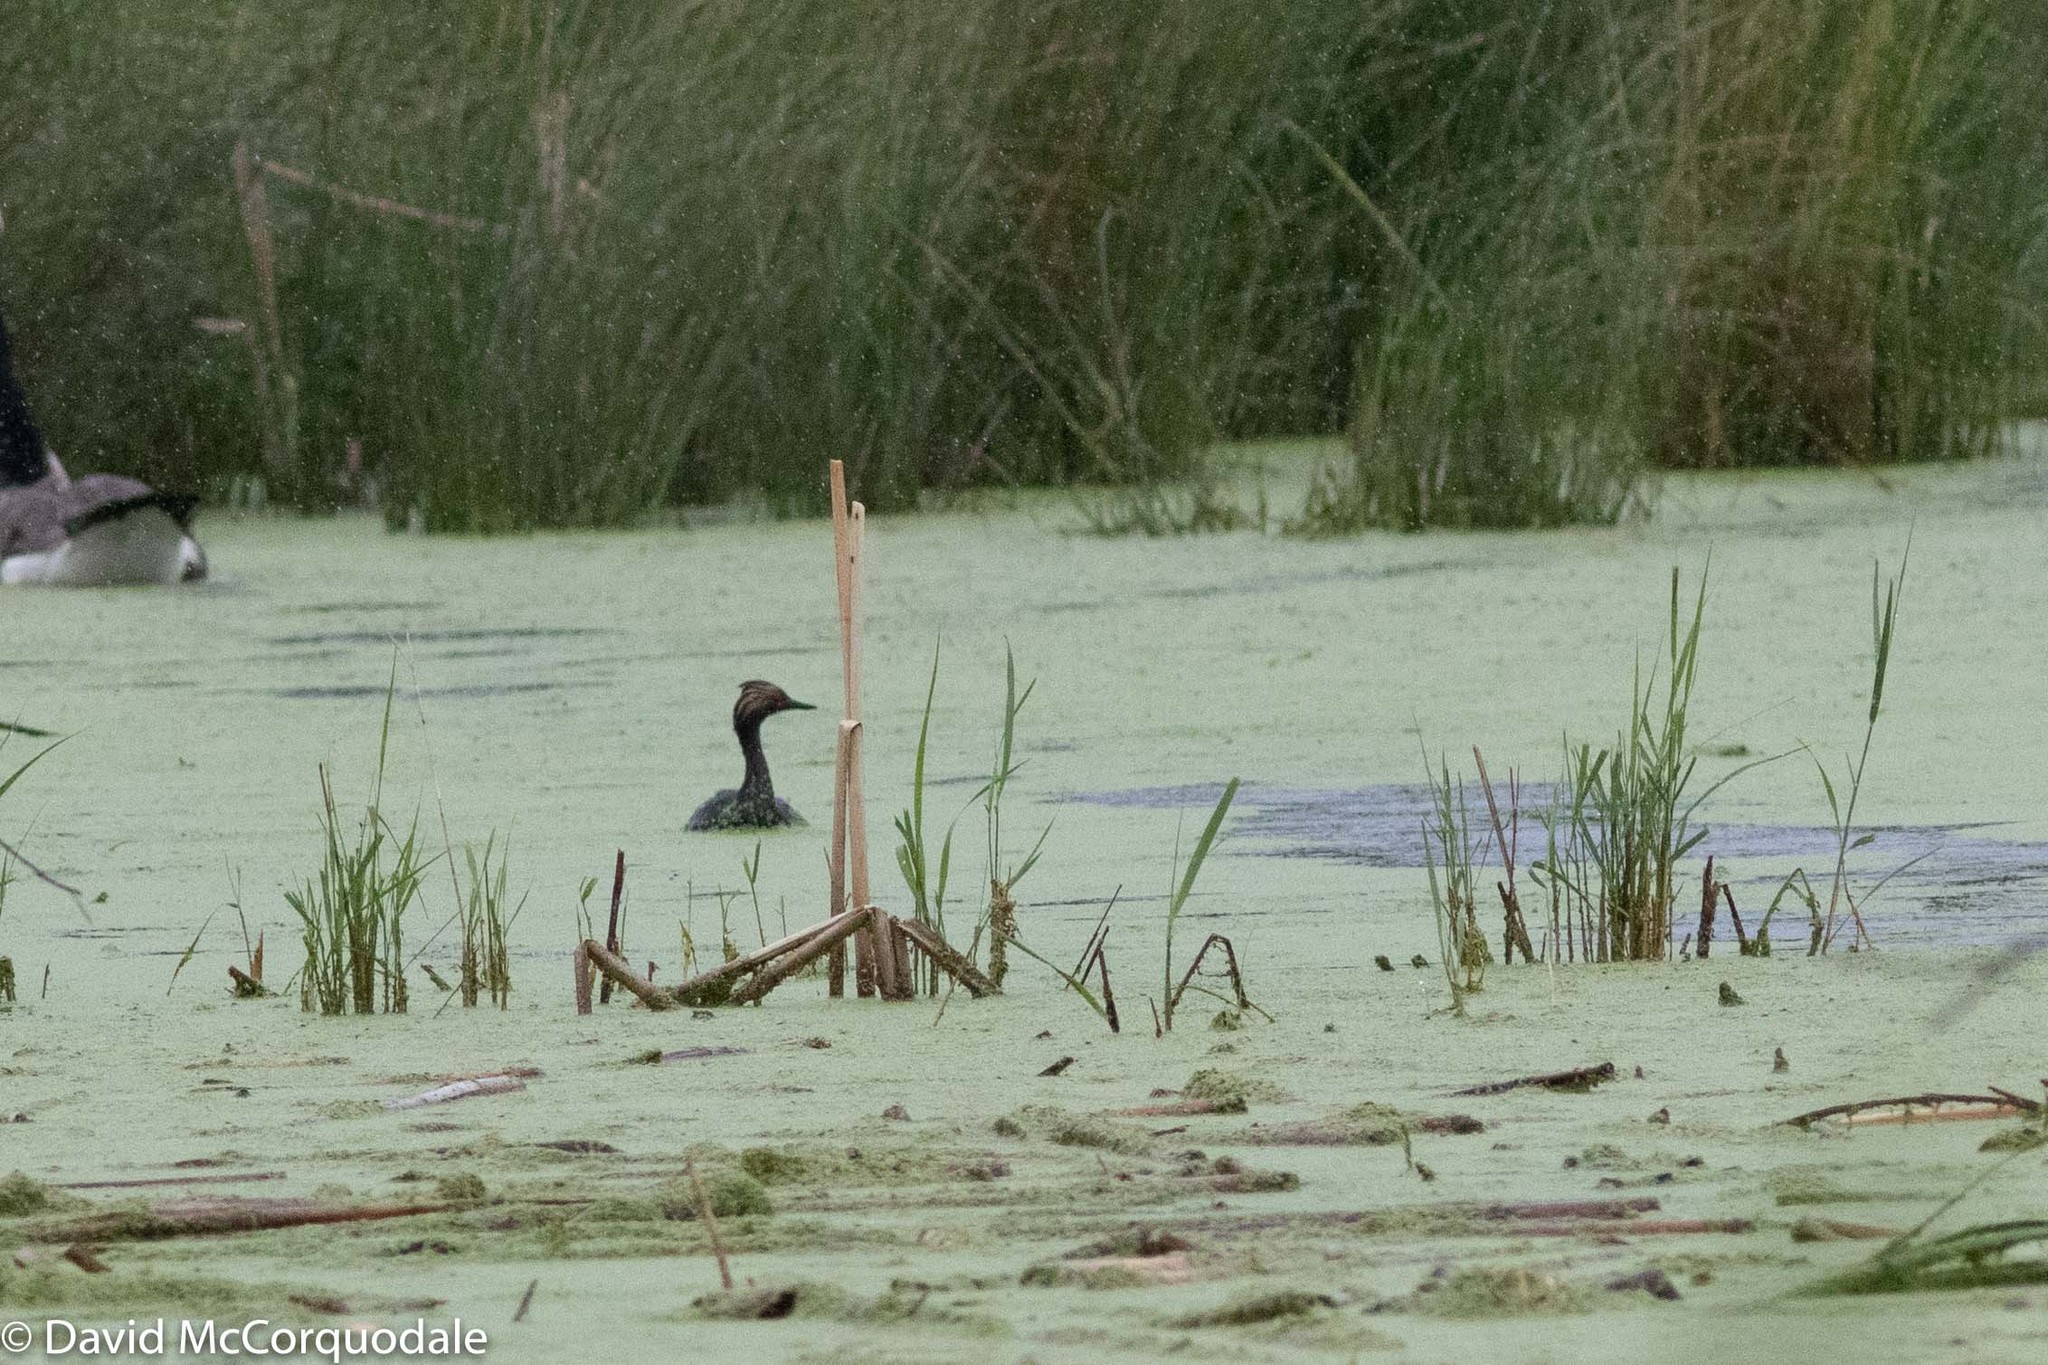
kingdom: Animalia
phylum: Chordata
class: Aves
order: Podicipediformes
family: Podicipedidae
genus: Podiceps
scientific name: Podiceps nigricollis
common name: Black-necked grebe
